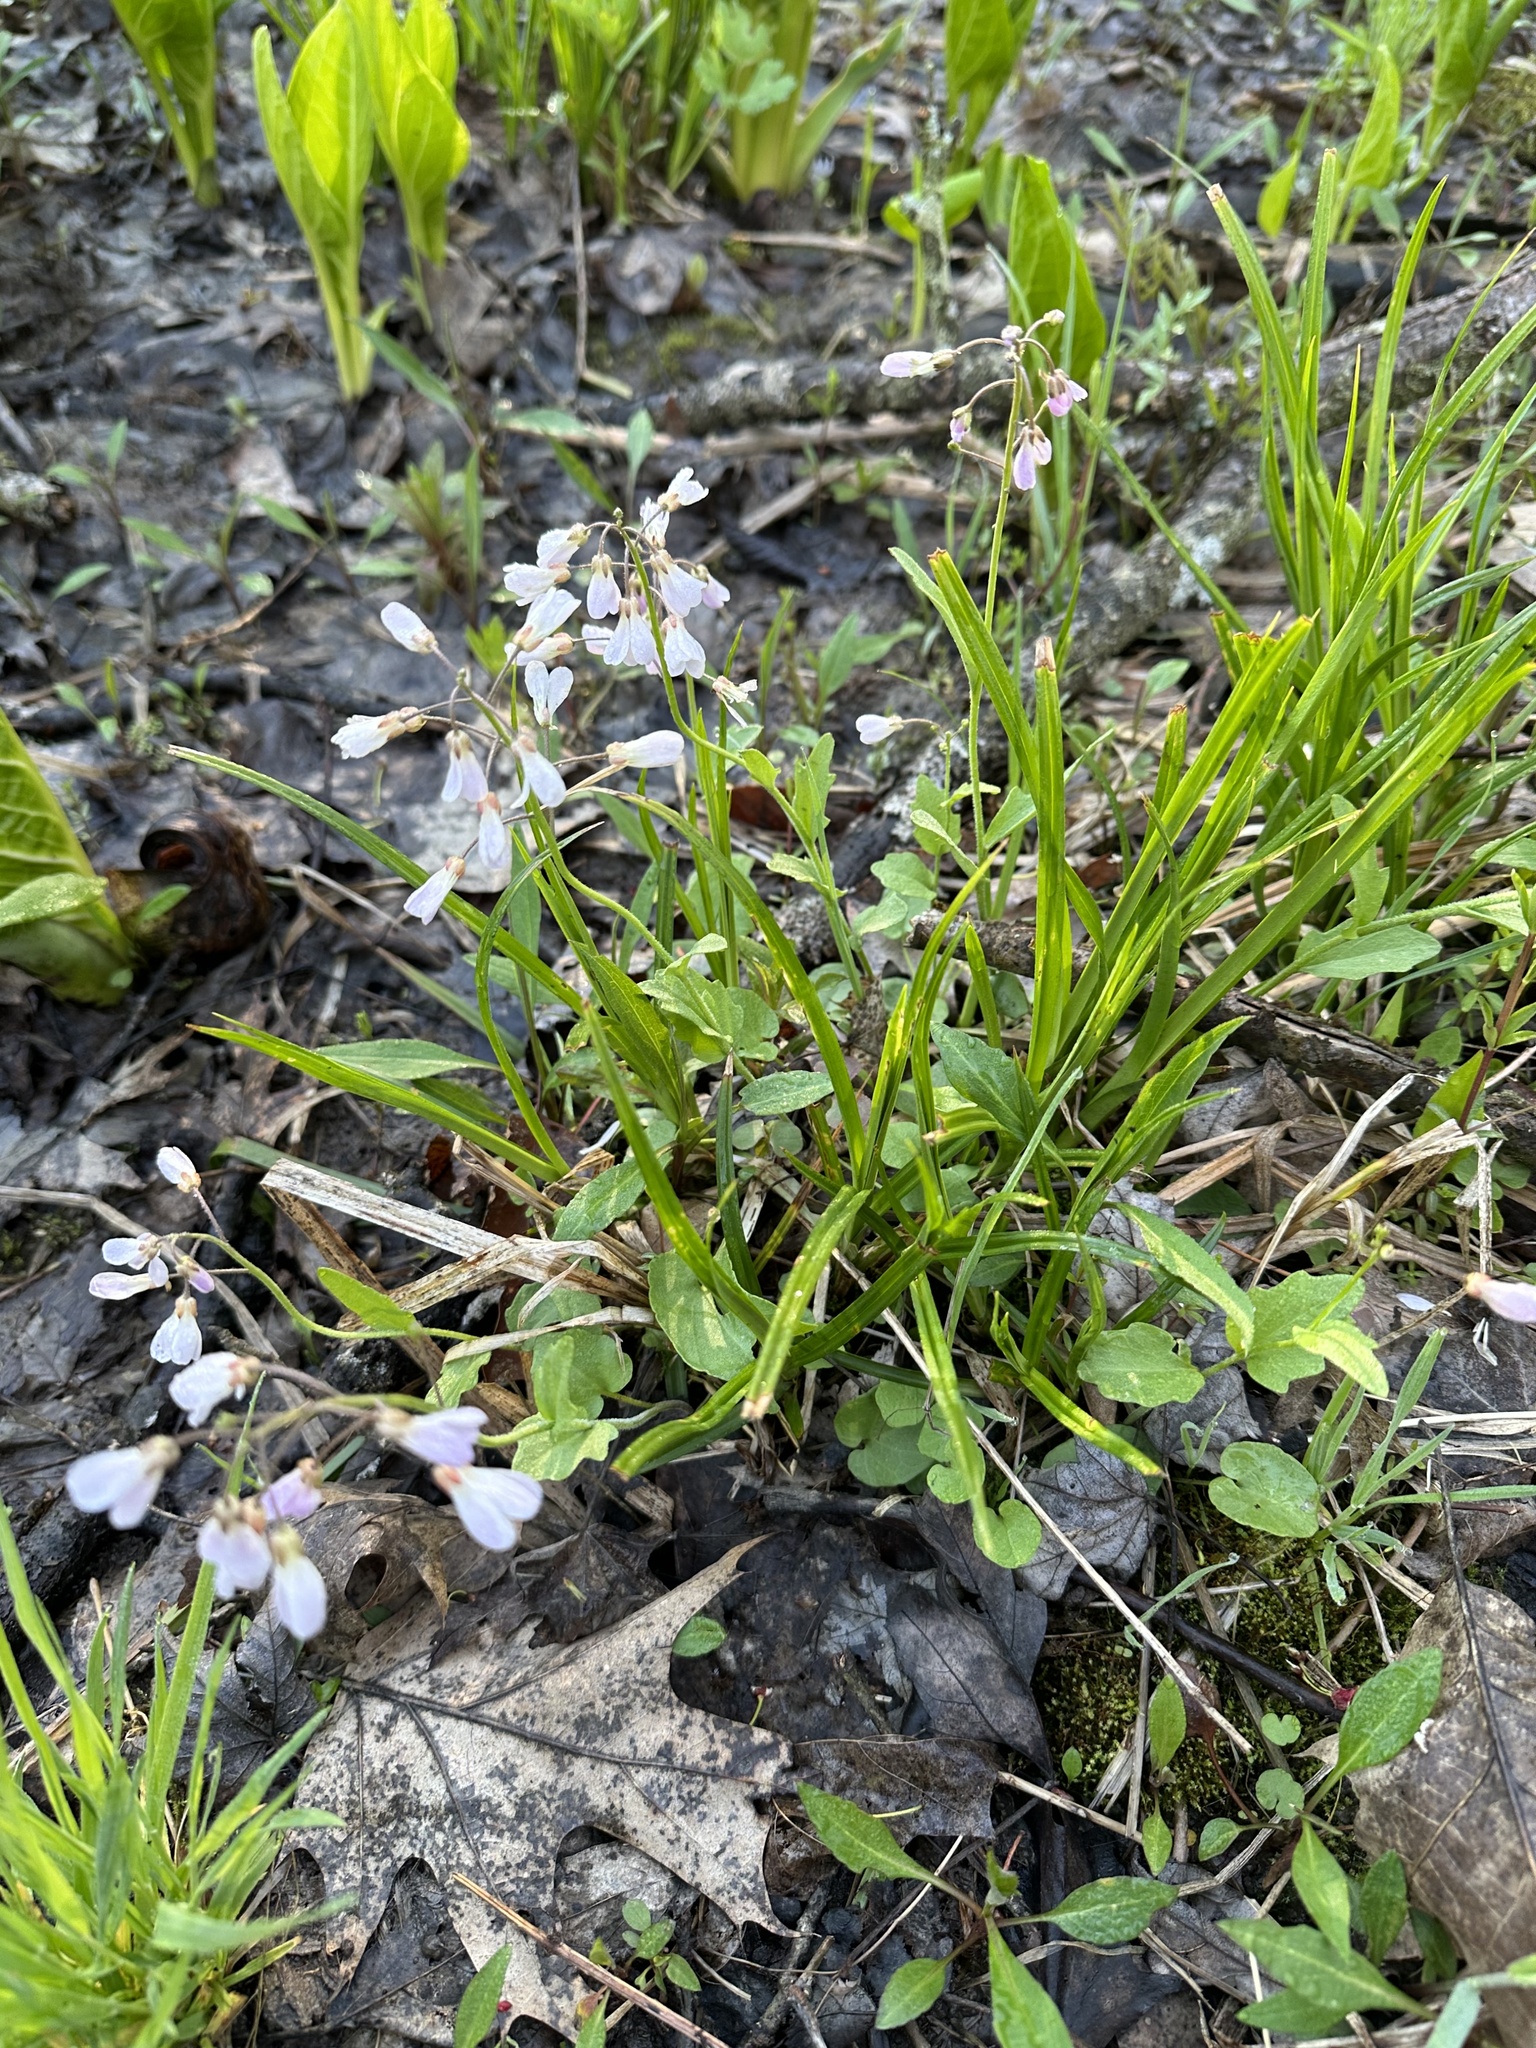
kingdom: Plantae
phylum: Tracheophyta
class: Magnoliopsida
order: Brassicales
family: Brassicaceae
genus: Cardamine
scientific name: Cardamine douglassii
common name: Purple cress
